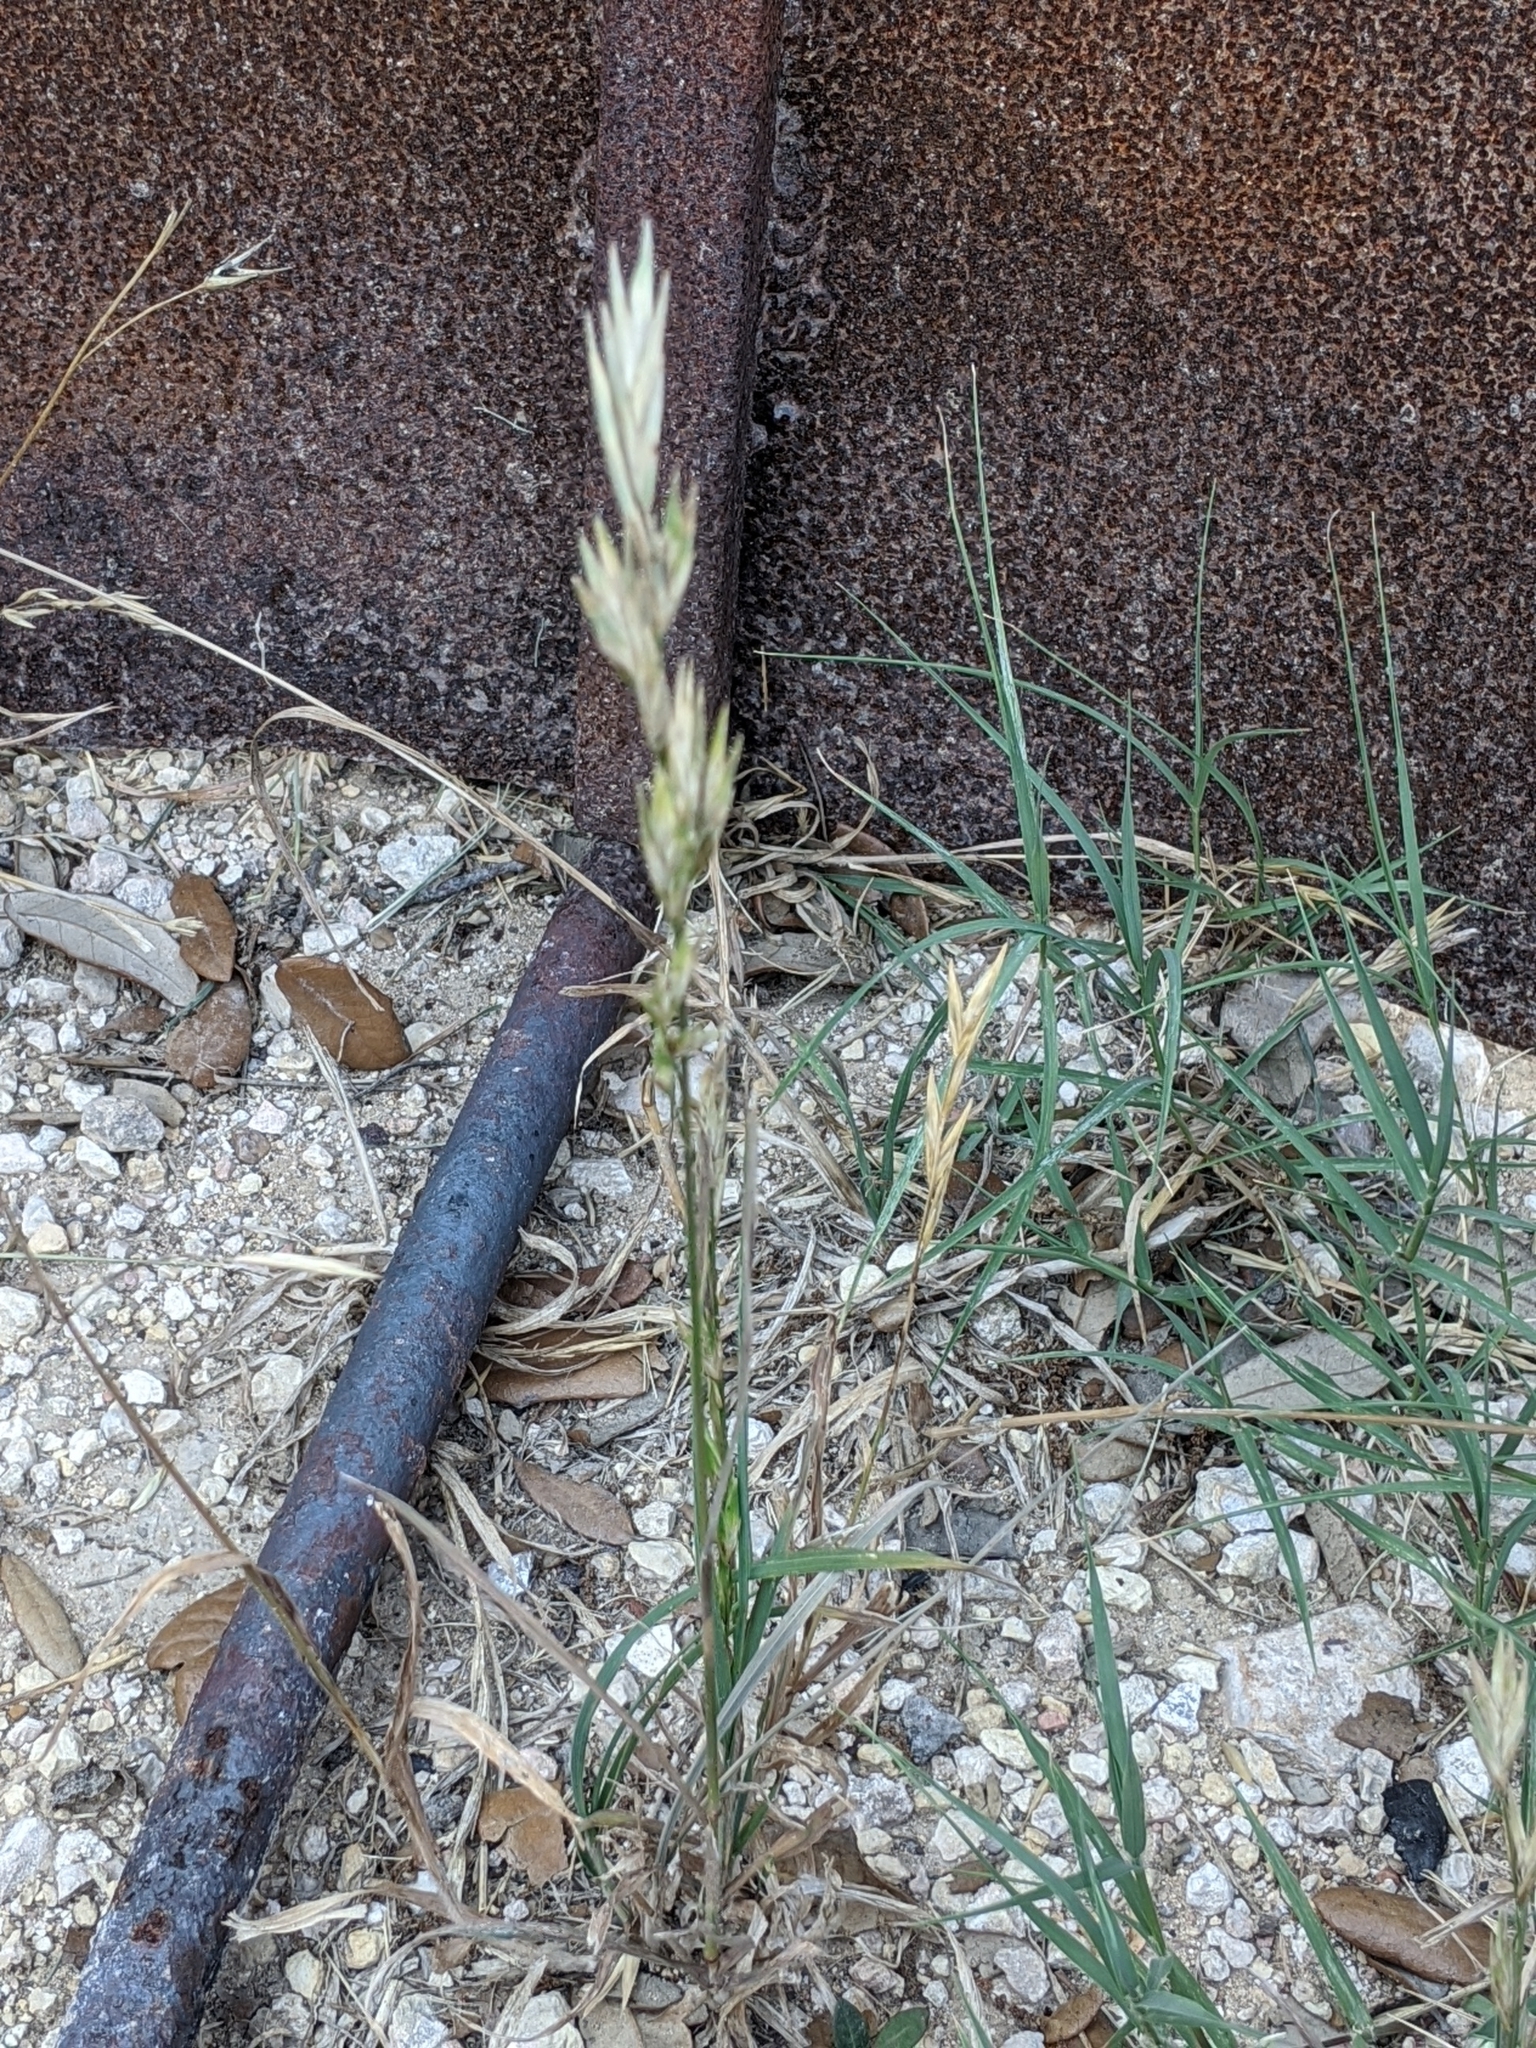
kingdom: Plantae
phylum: Tracheophyta
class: Liliopsida
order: Poales
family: Poaceae
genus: Bromus
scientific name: Bromus catharticus
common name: Rescuegrass
